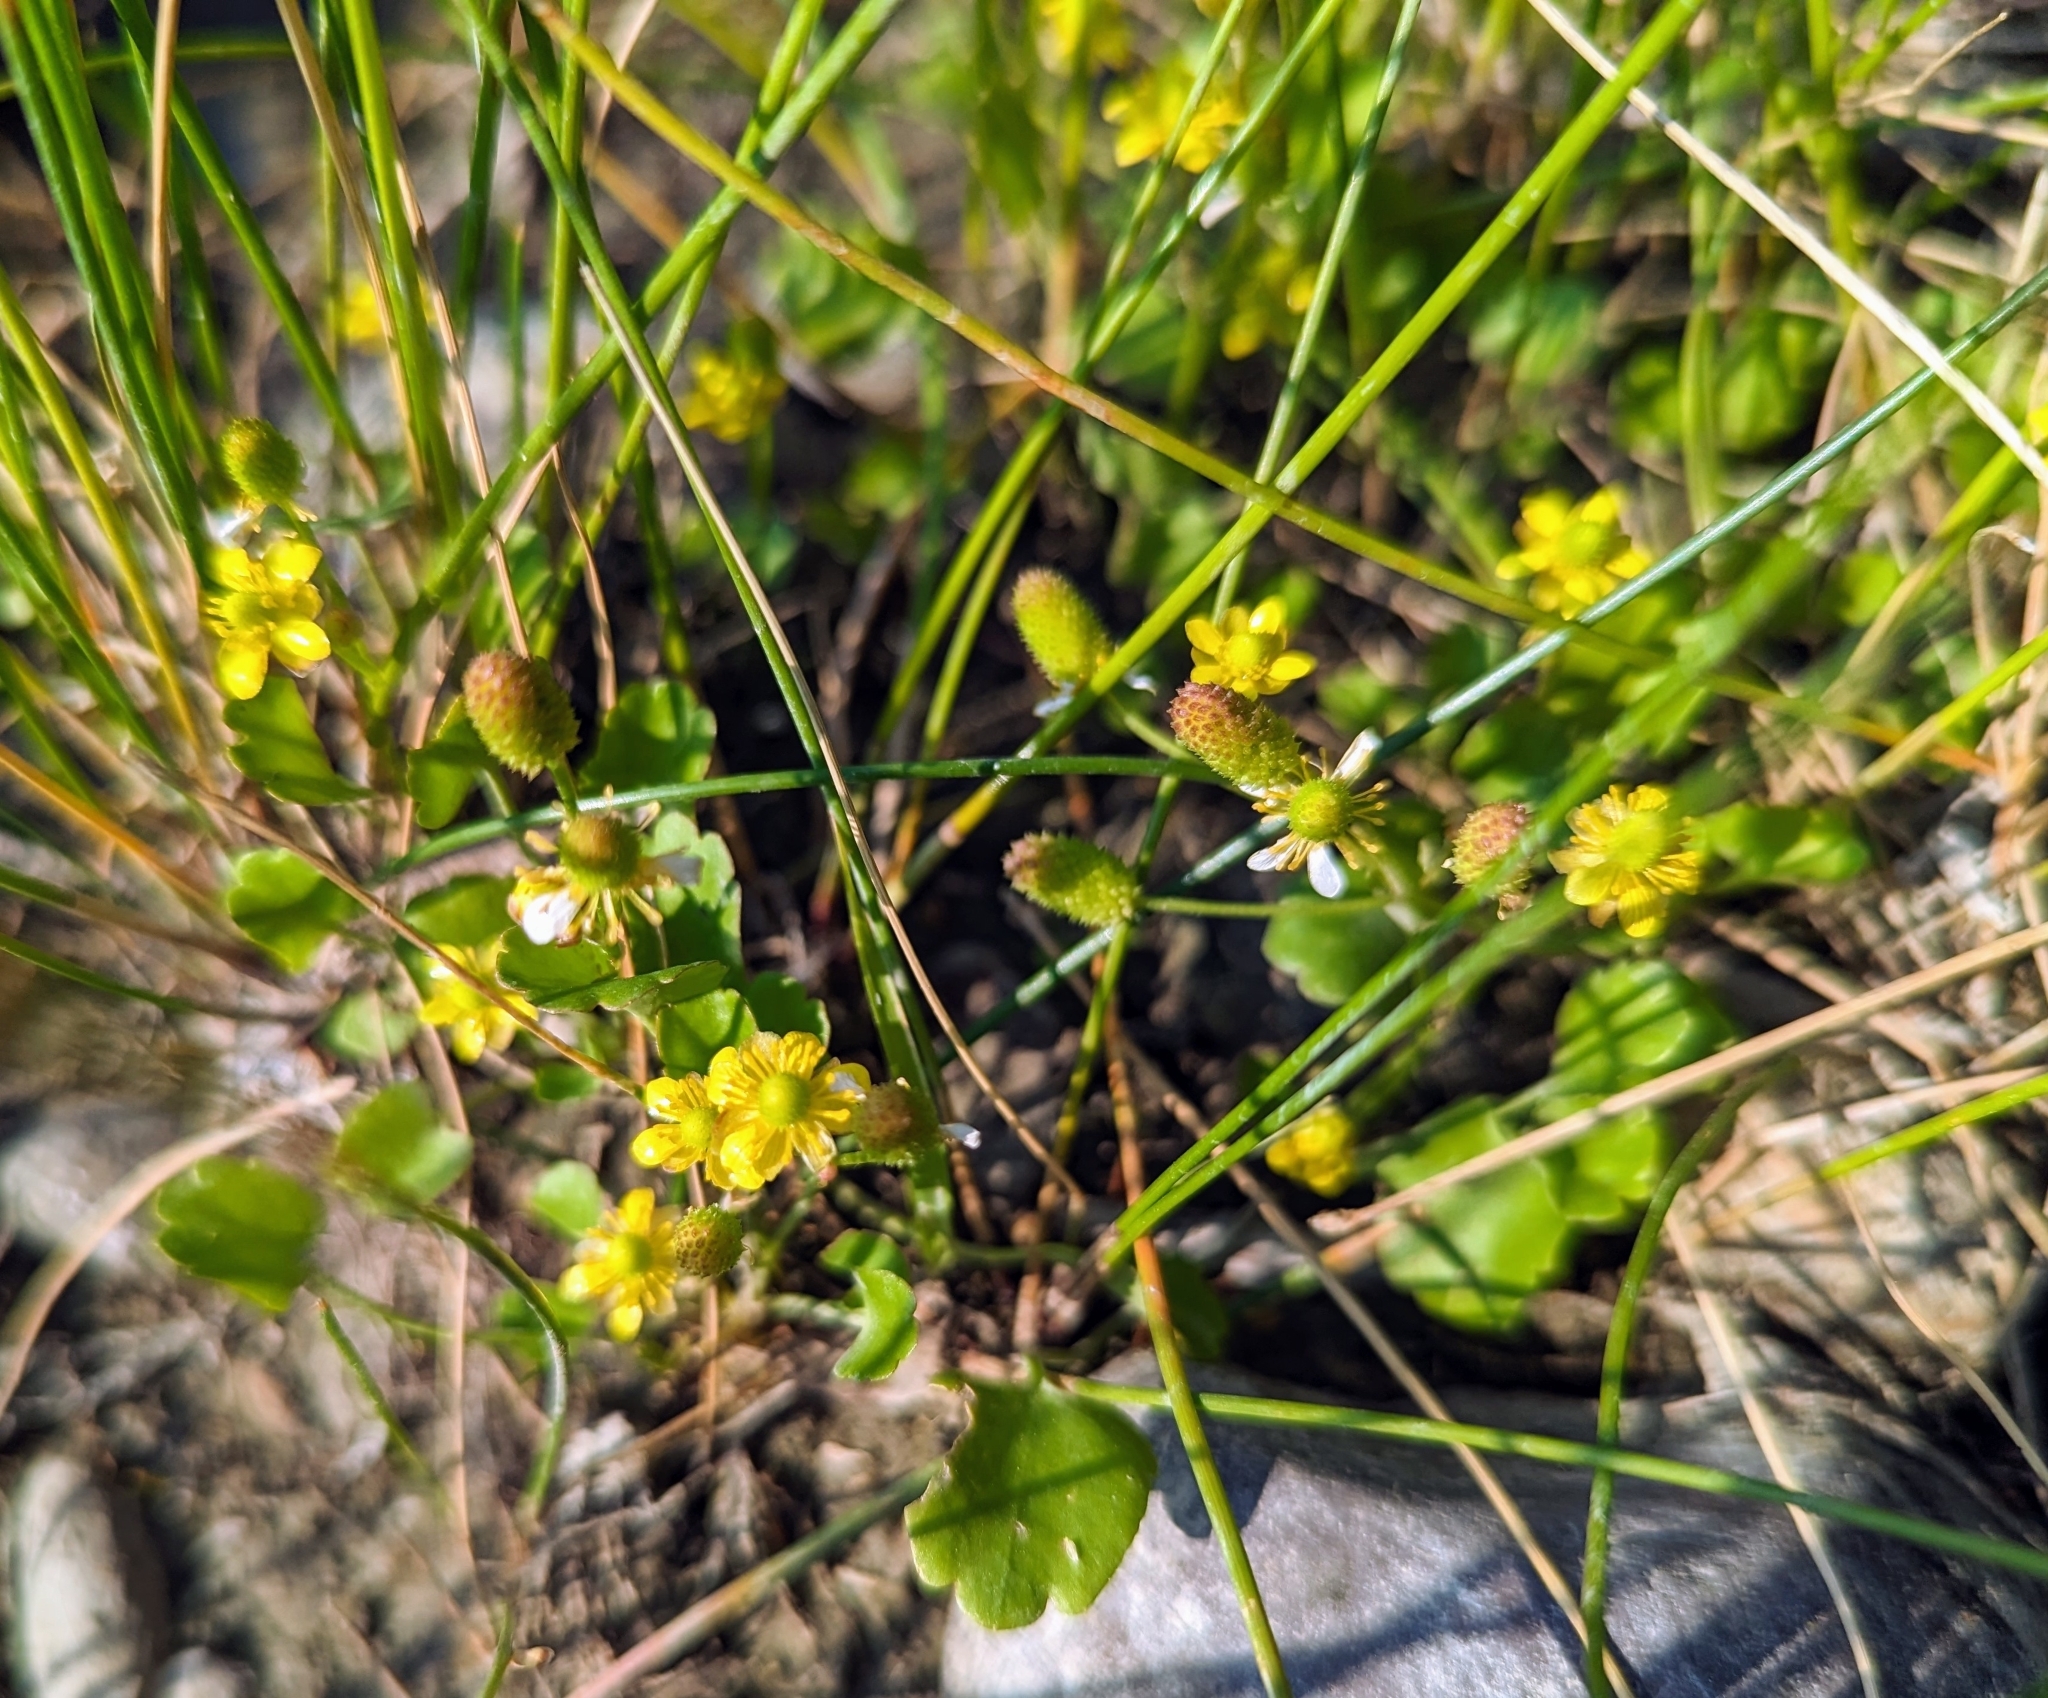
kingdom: Plantae
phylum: Tracheophyta
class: Magnoliopsida
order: Ranunculales
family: Ranunculaceae
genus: Halerpestes
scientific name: Halerpestes cymbalaria
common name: Seaside crowfoot
